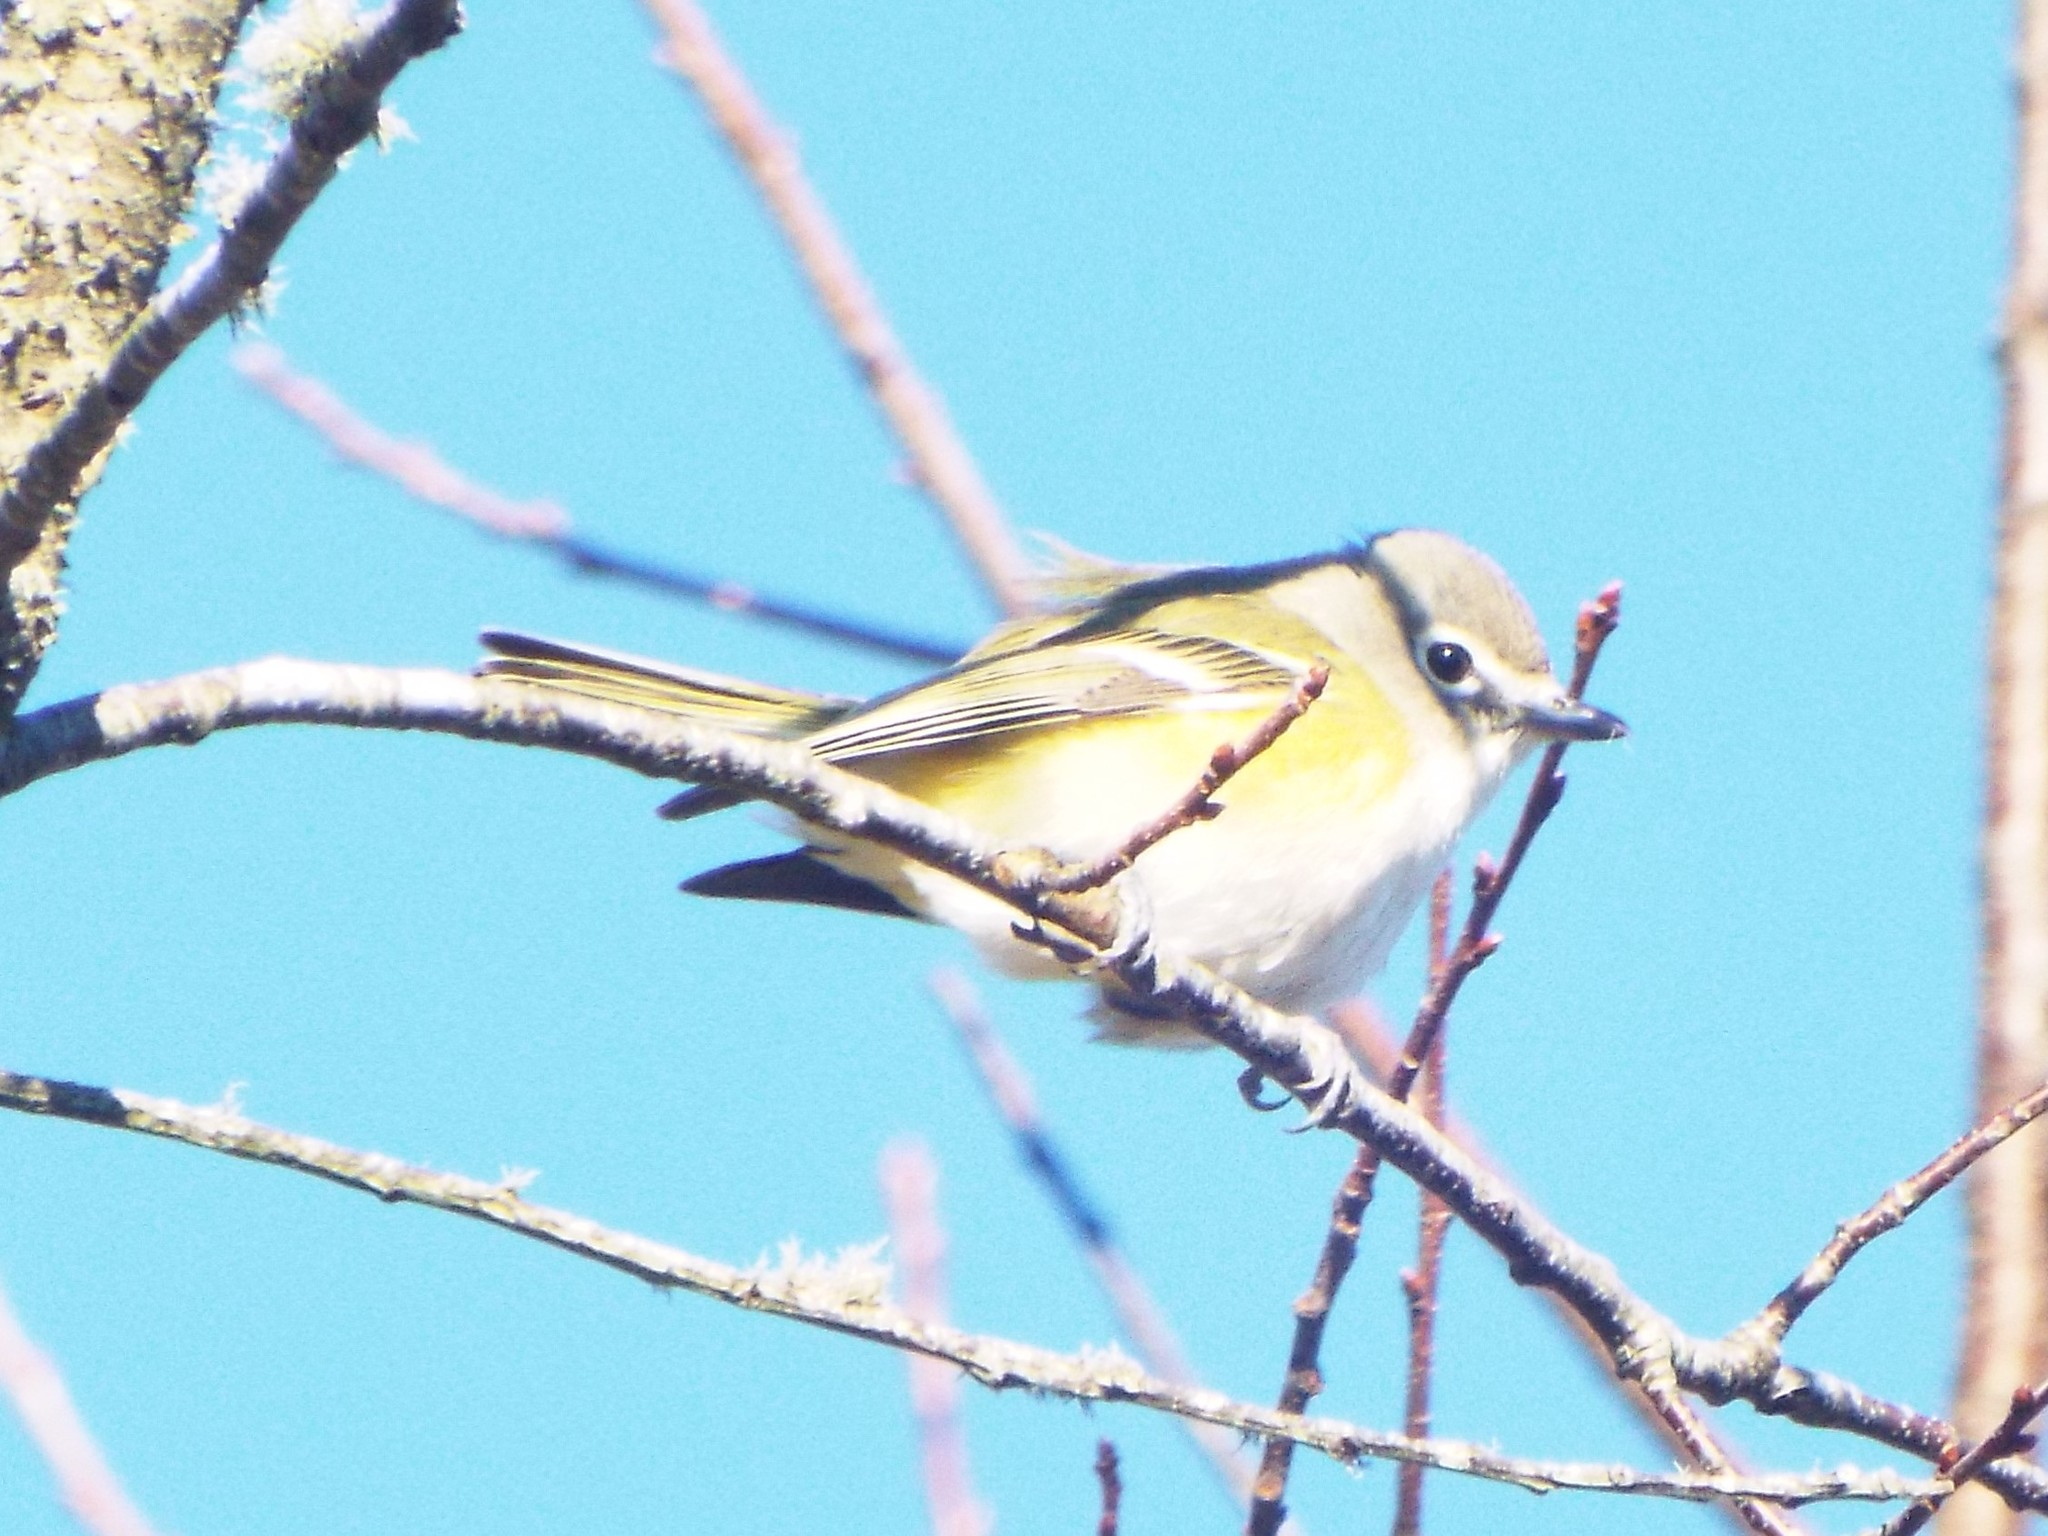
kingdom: Animalia
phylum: Chordata
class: Aves
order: Passeriformes
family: Vireonidae
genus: Vireo
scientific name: Vireo solitarius
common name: Blue-headed vireo
